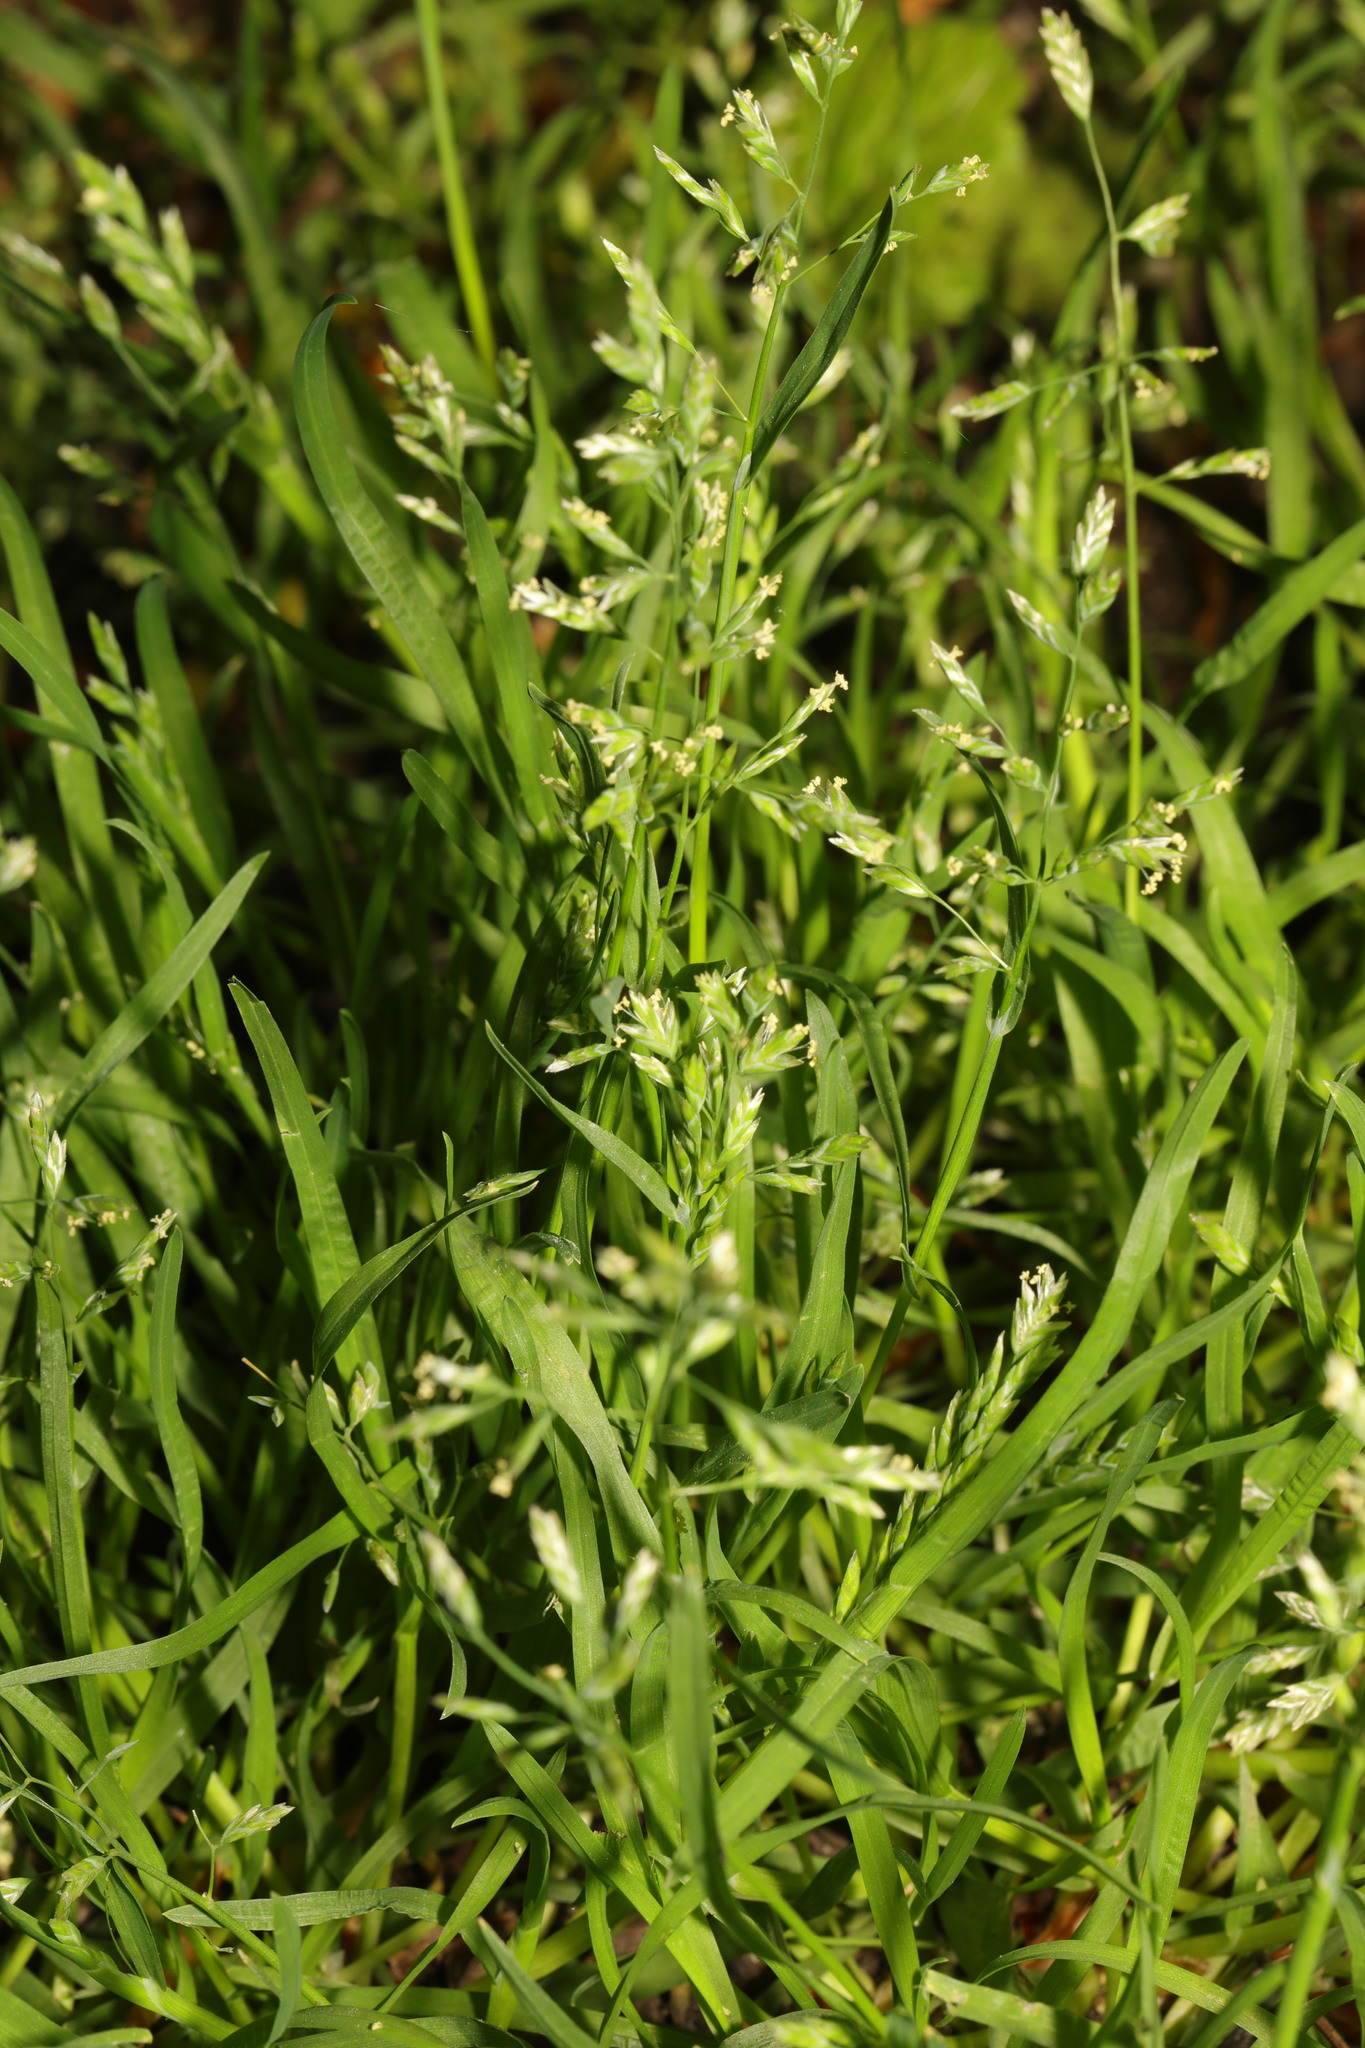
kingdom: Plantae
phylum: Tracheophyta
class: Liliopsida
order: Poales
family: Poaceae
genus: Poa
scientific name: Poa annua
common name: Annual bluegrass
